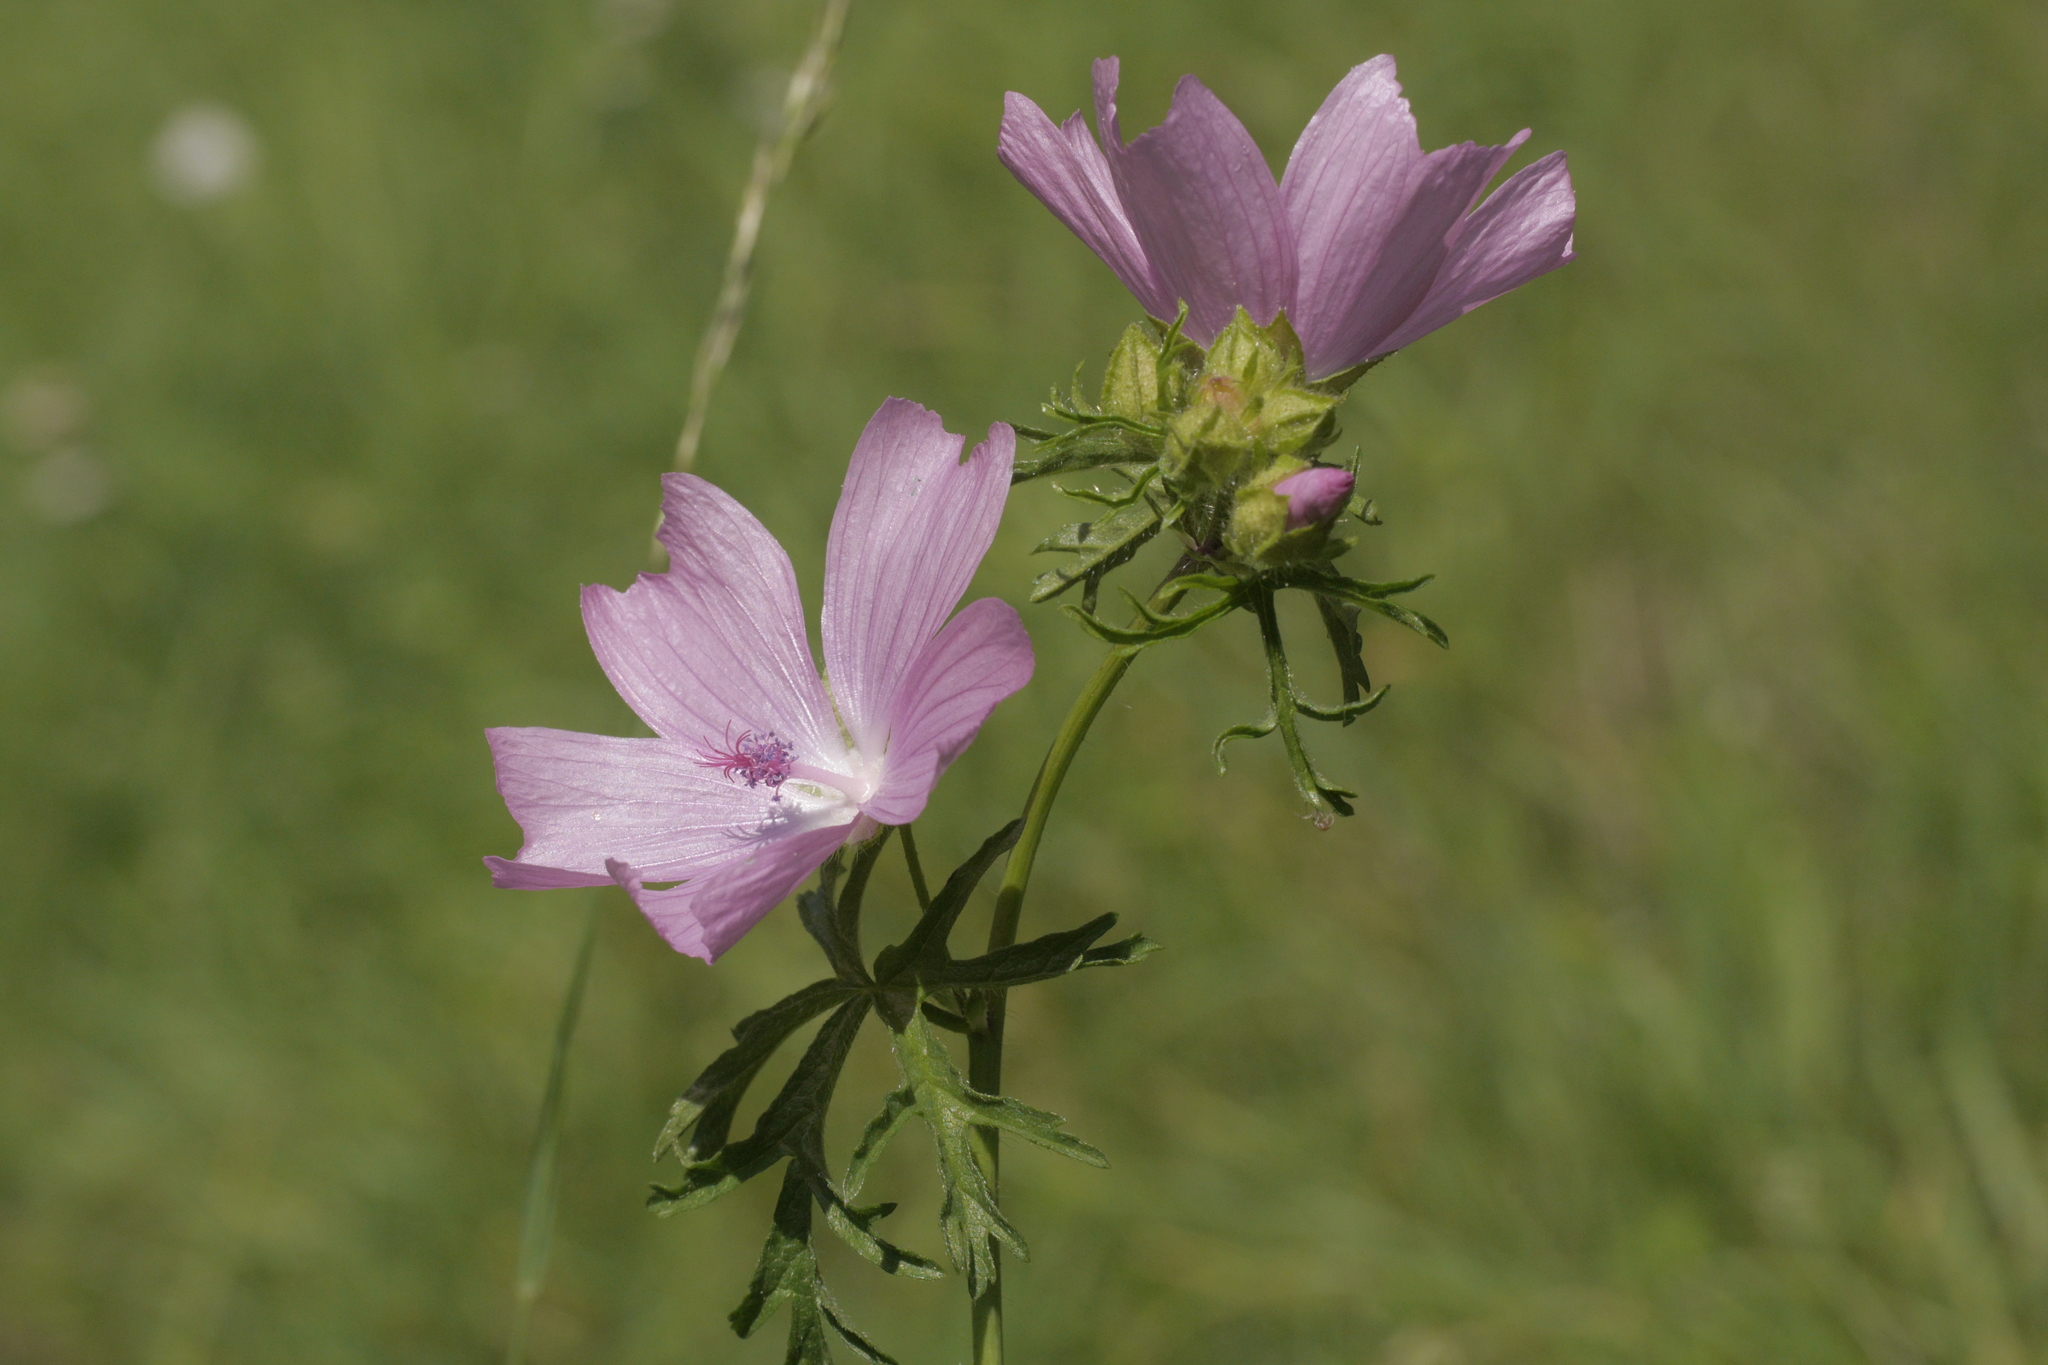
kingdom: Plantae
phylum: Tracheophyta
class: Magnoliopsida
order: Malvales
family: Malvaceae
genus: Malva
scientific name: Malva moschata
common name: Musk mallow
